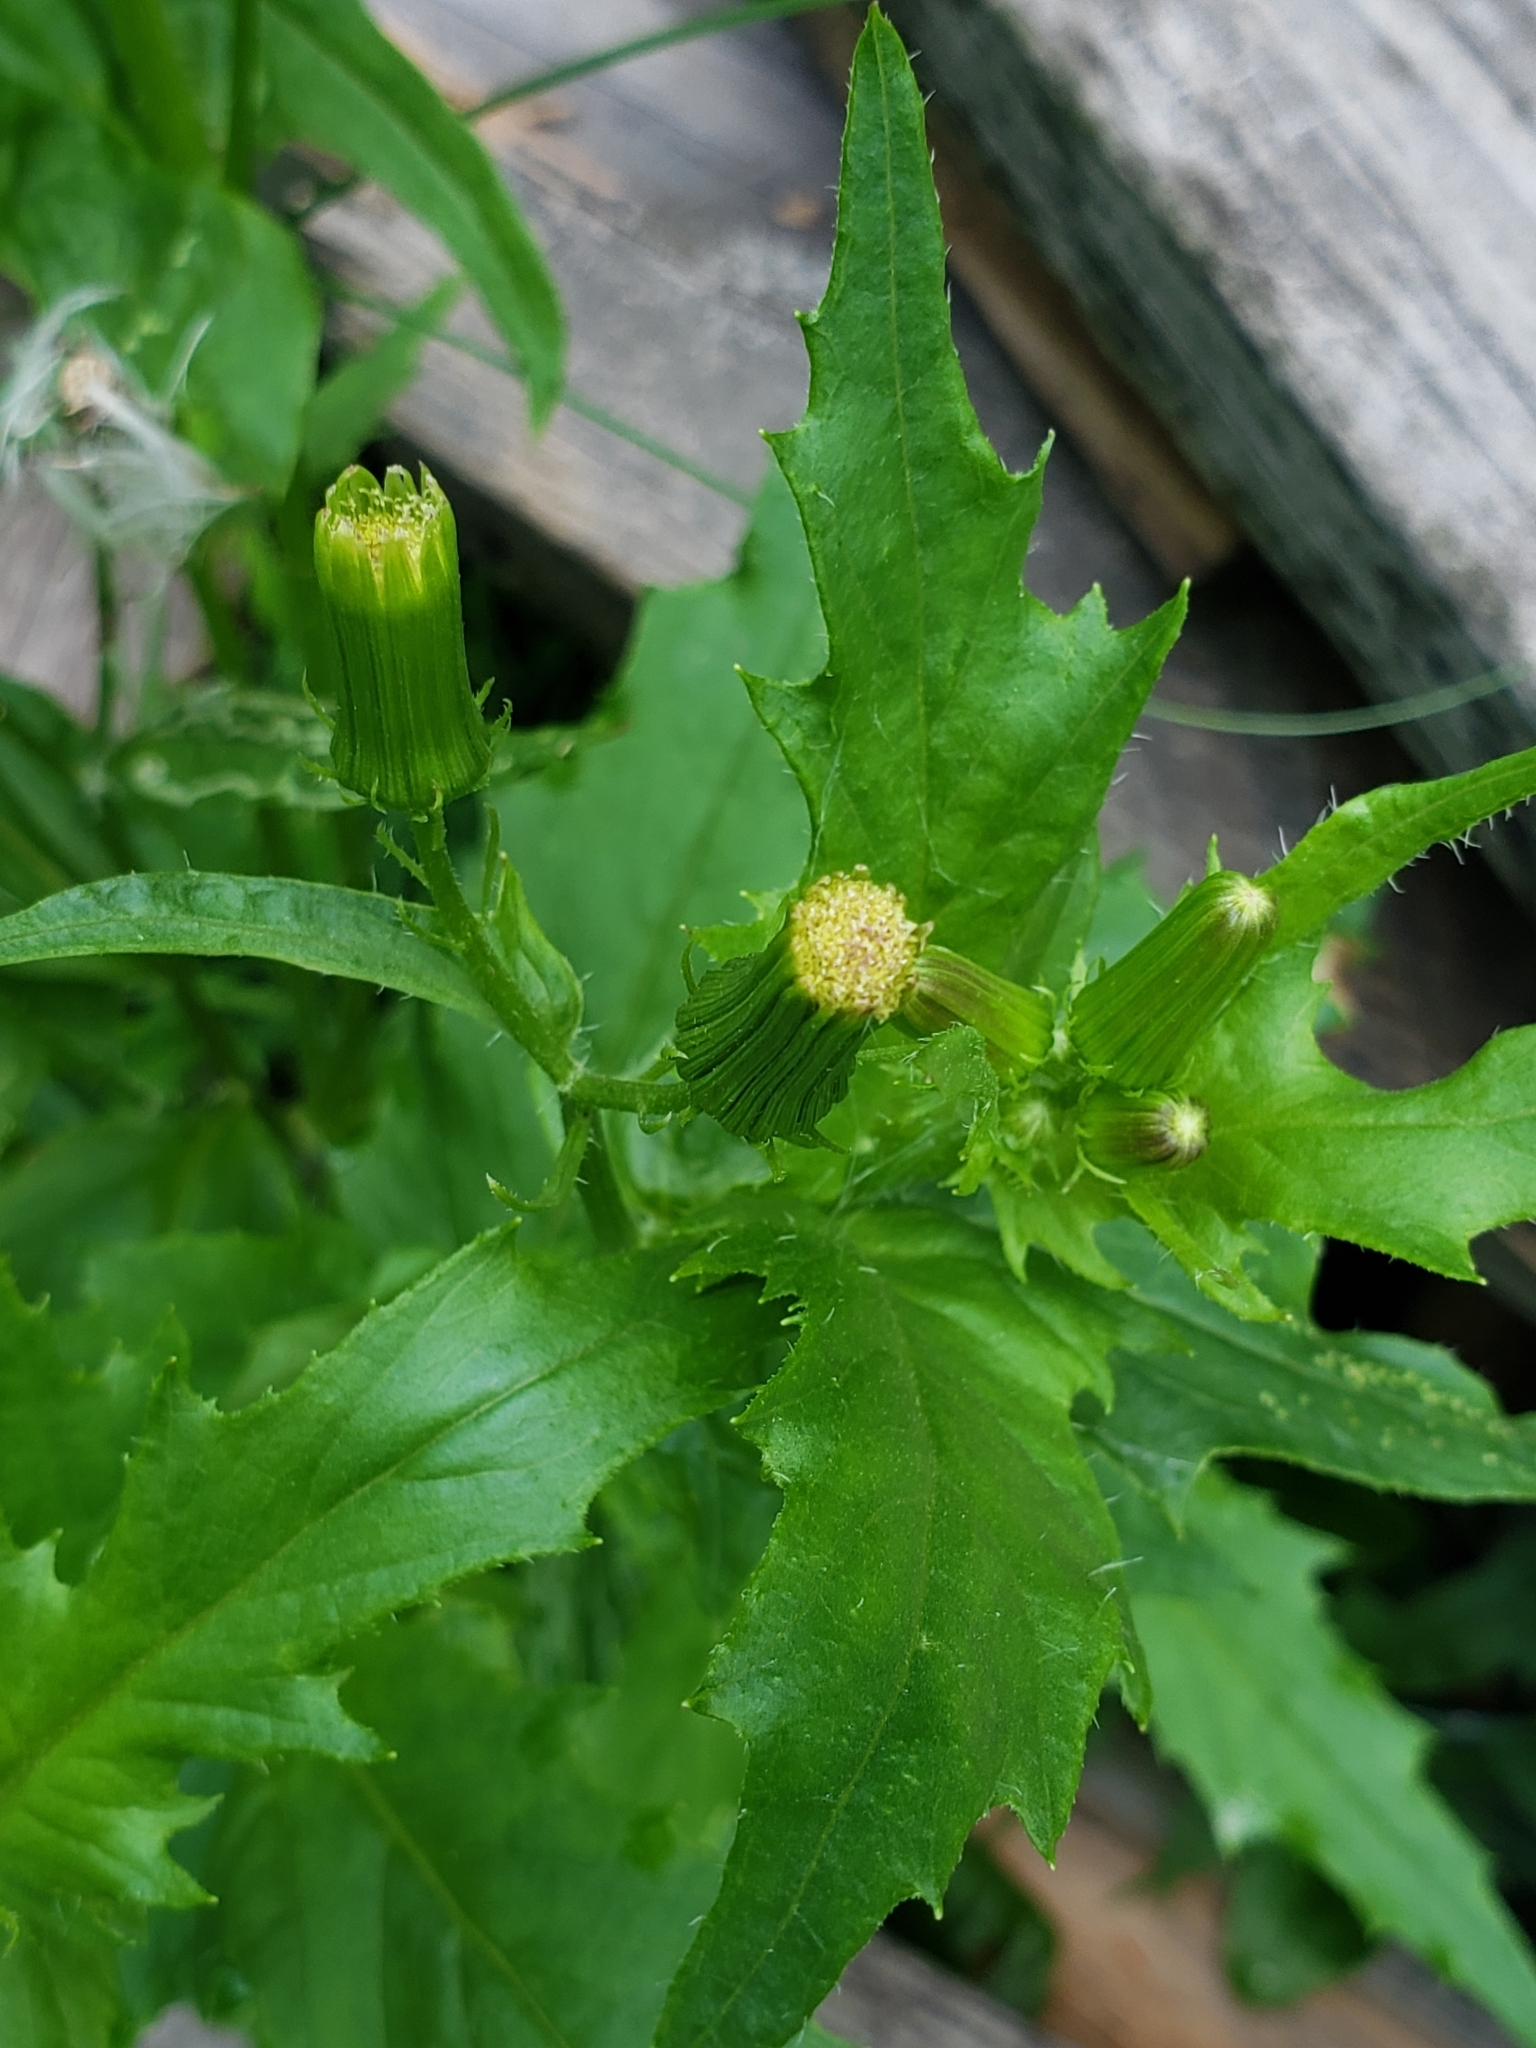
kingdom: Plantae
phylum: Tracheophyta
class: Magnoliopsida
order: Asterales
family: Asteraceae
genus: Erechtites
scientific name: Erechtites hieraciifolius
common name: American burnweed
